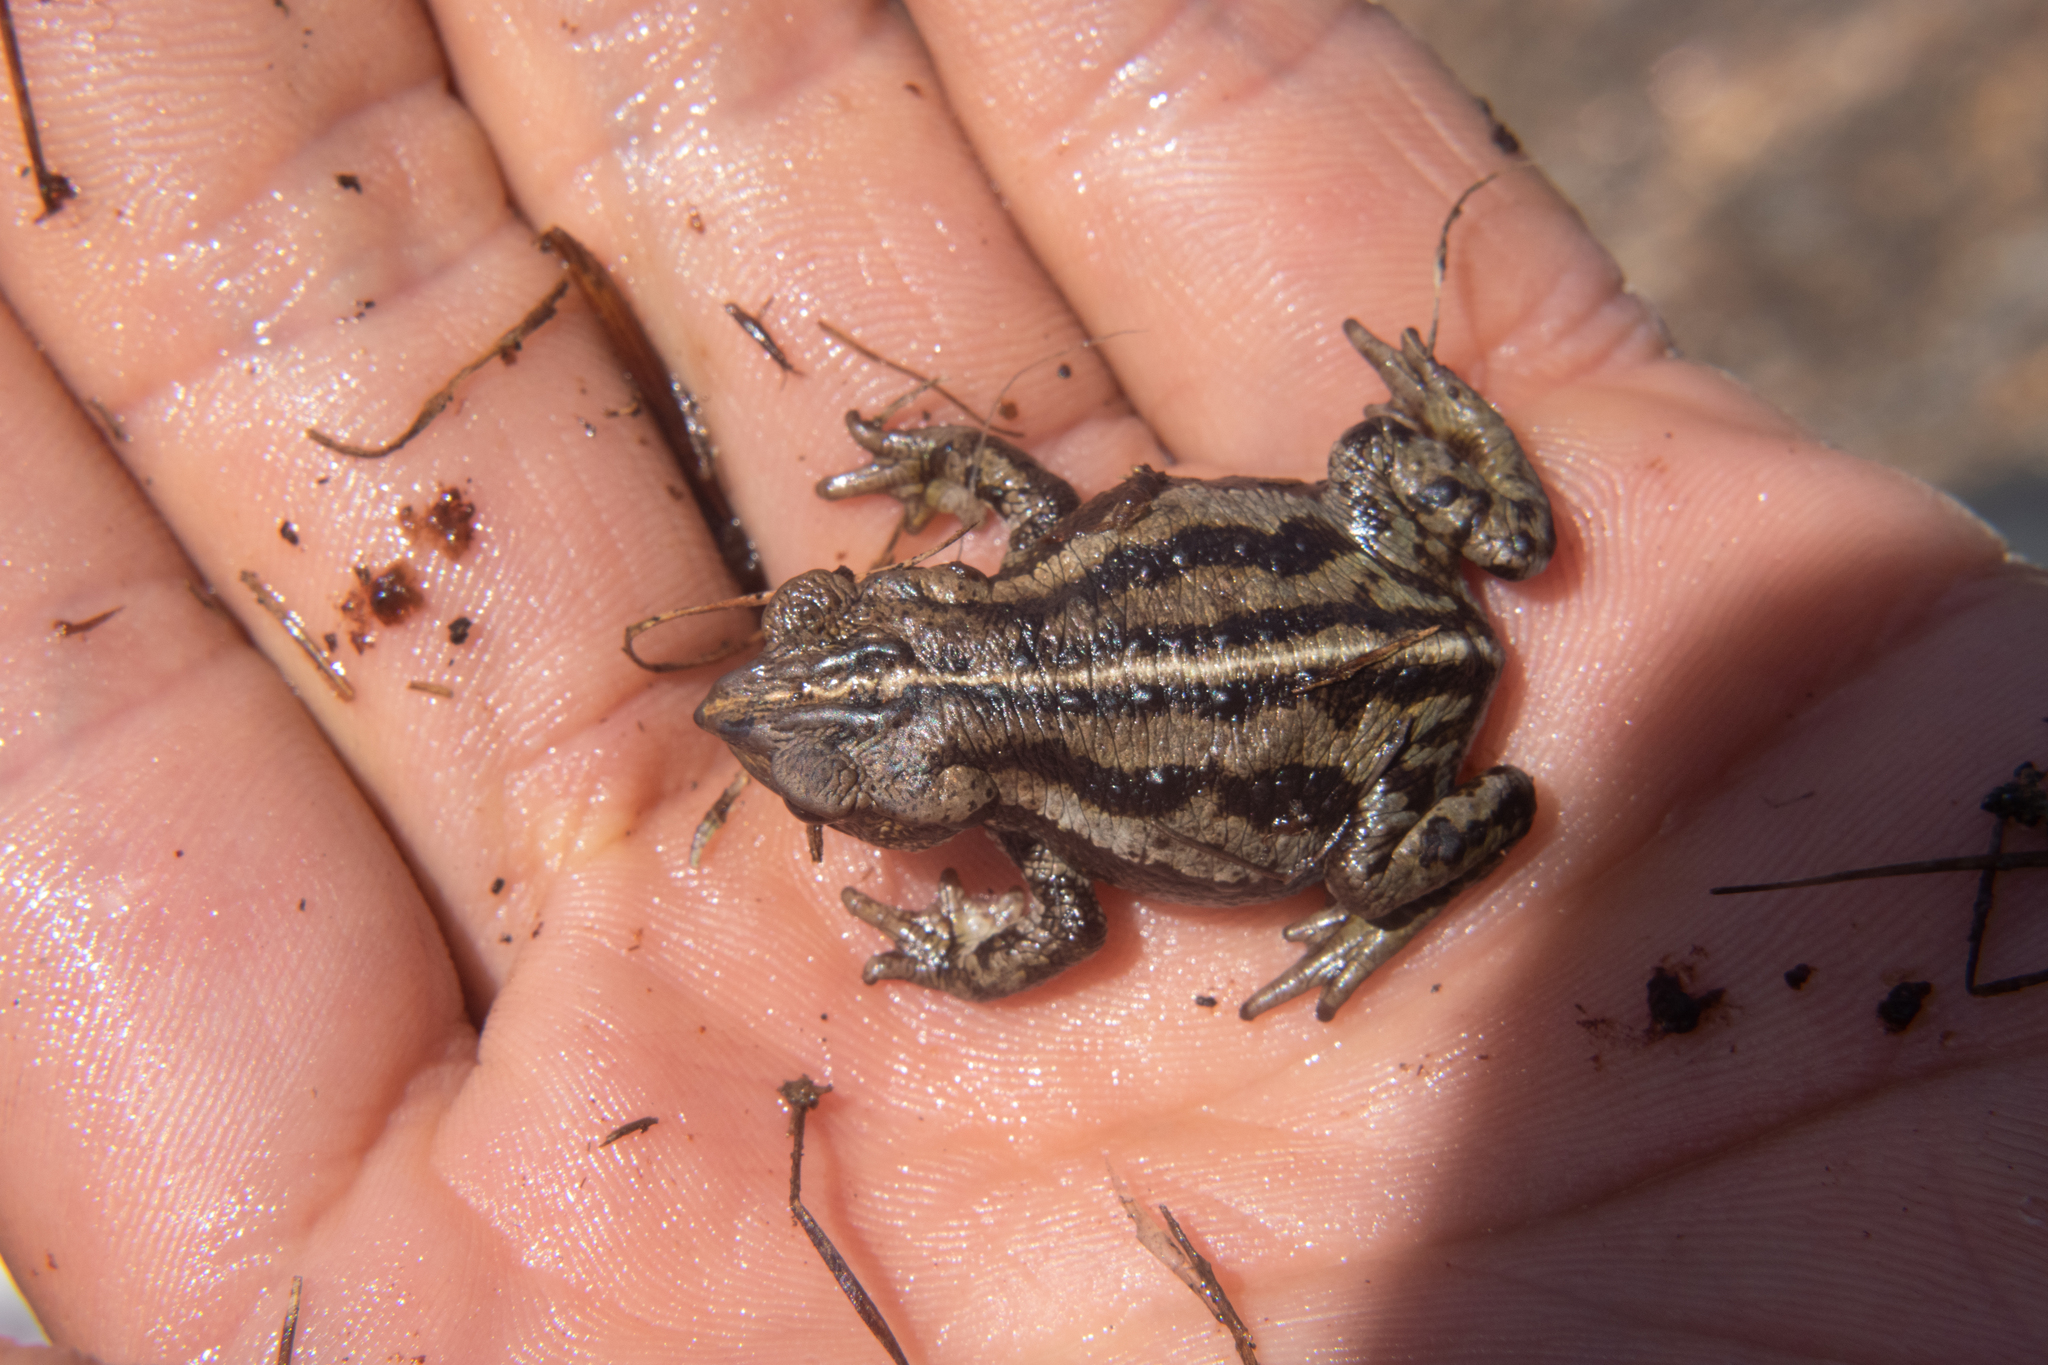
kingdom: Animalia
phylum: Chordata
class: Amphibia
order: Anura
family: Bufonidae
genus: Rhinella
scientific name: Rhinella nicefori
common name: Colombian beaked toad
